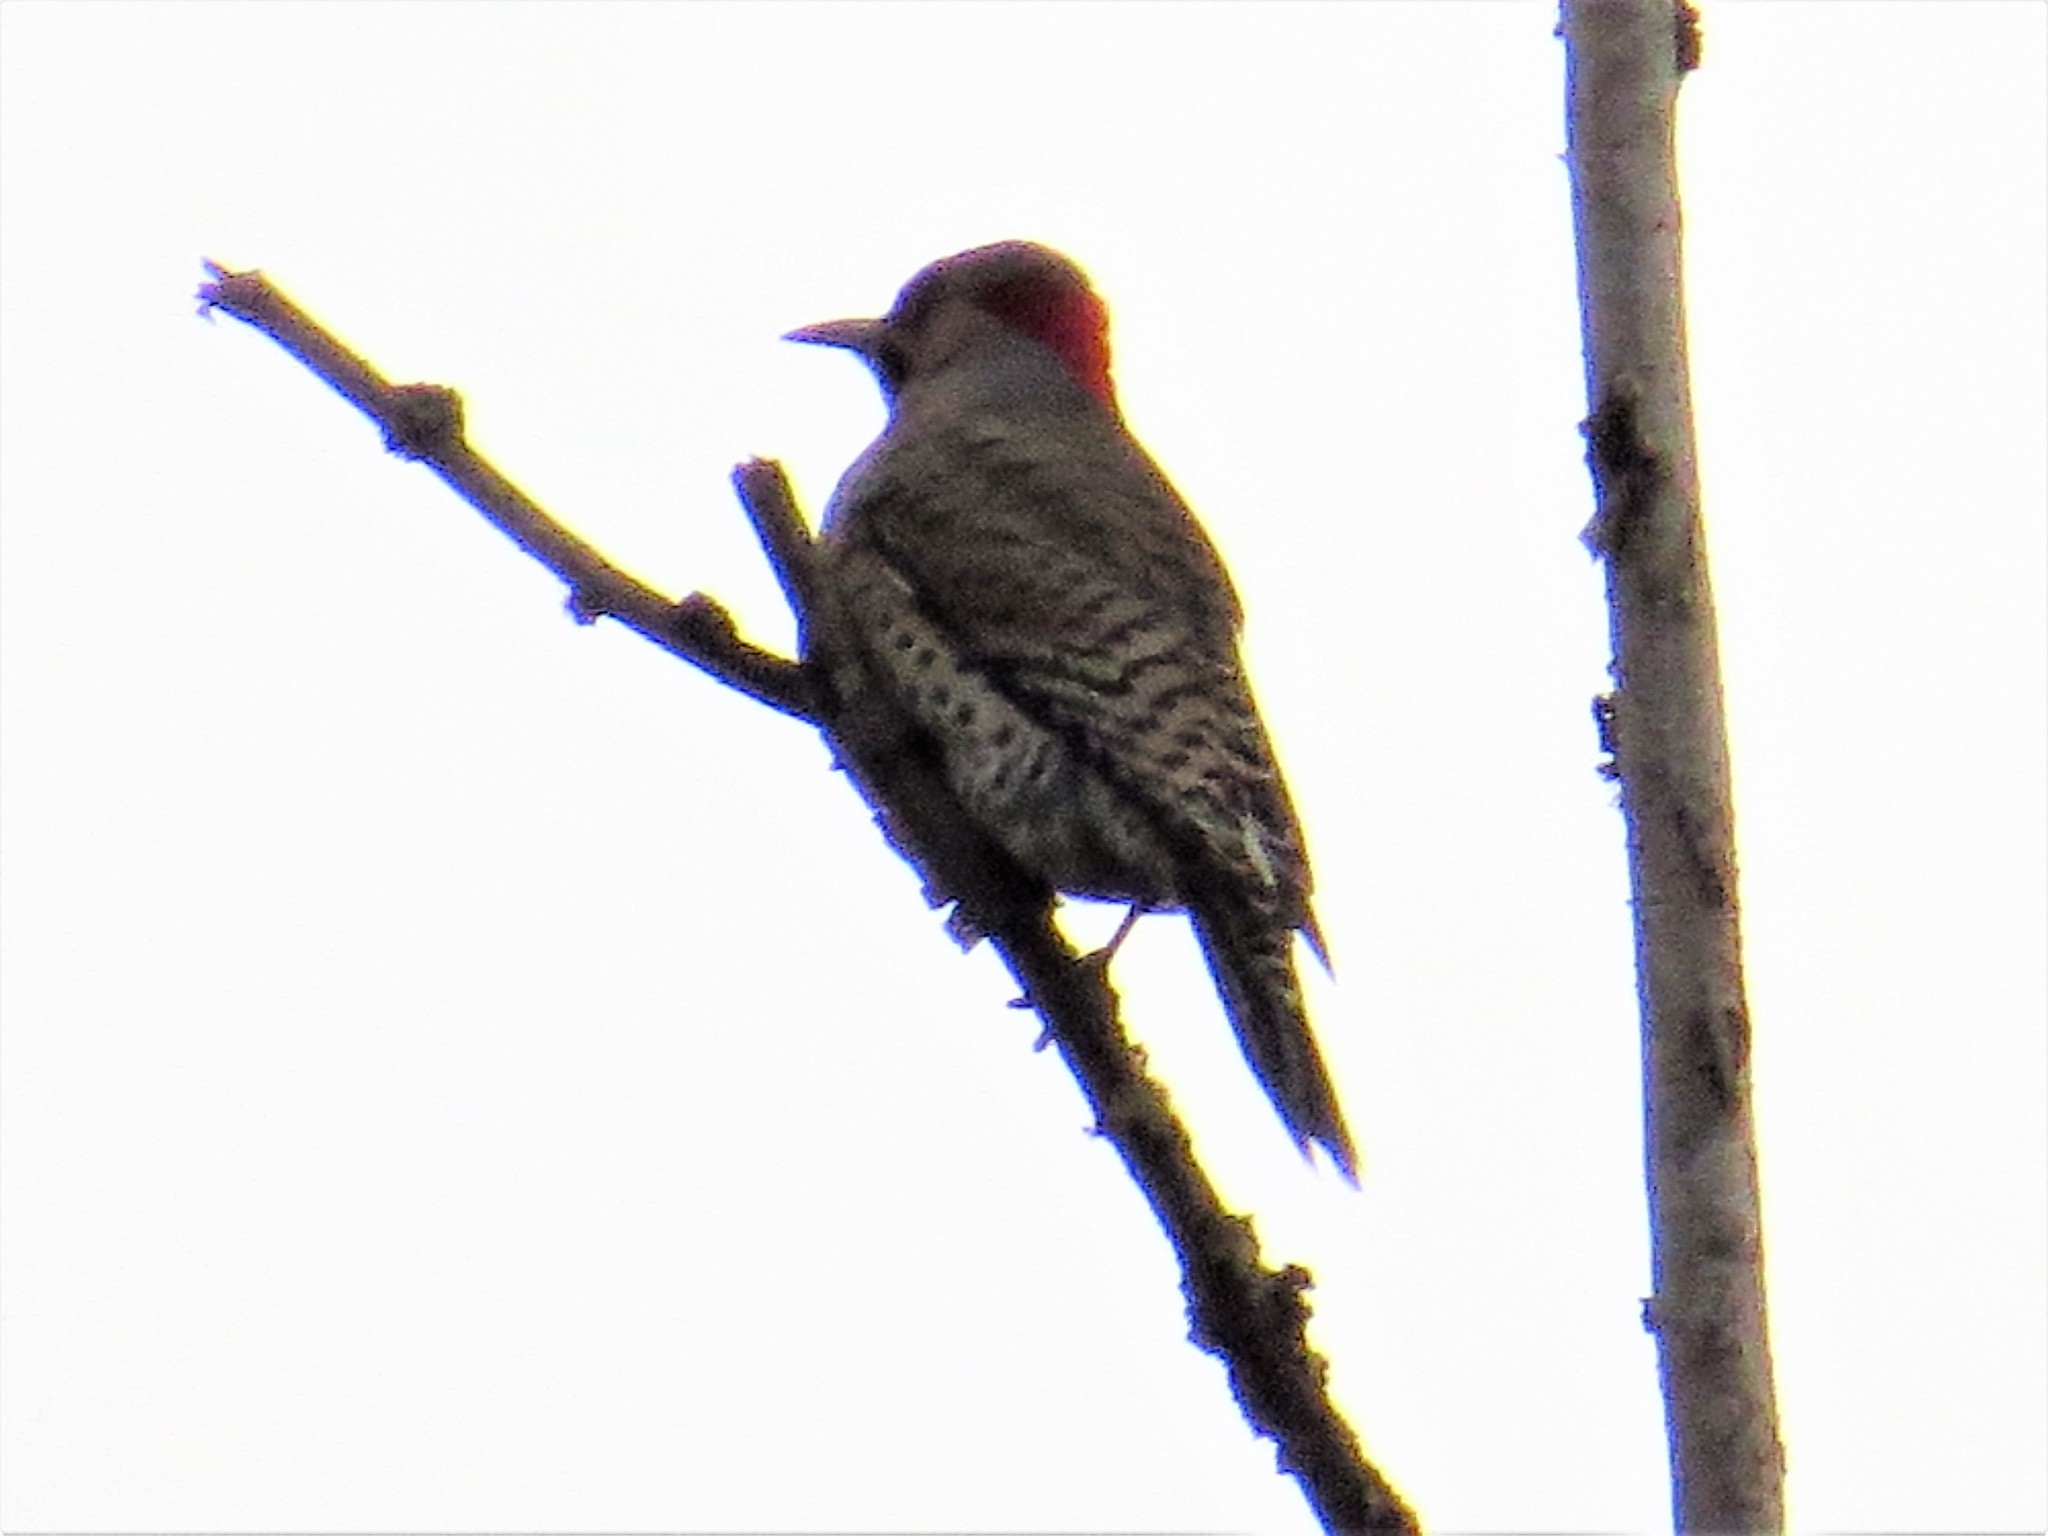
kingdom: Animalia
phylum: Chordata
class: Aves
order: Piciformes
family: Picidae
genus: Colaptes
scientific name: Colaptes auratus
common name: Northern flicker
